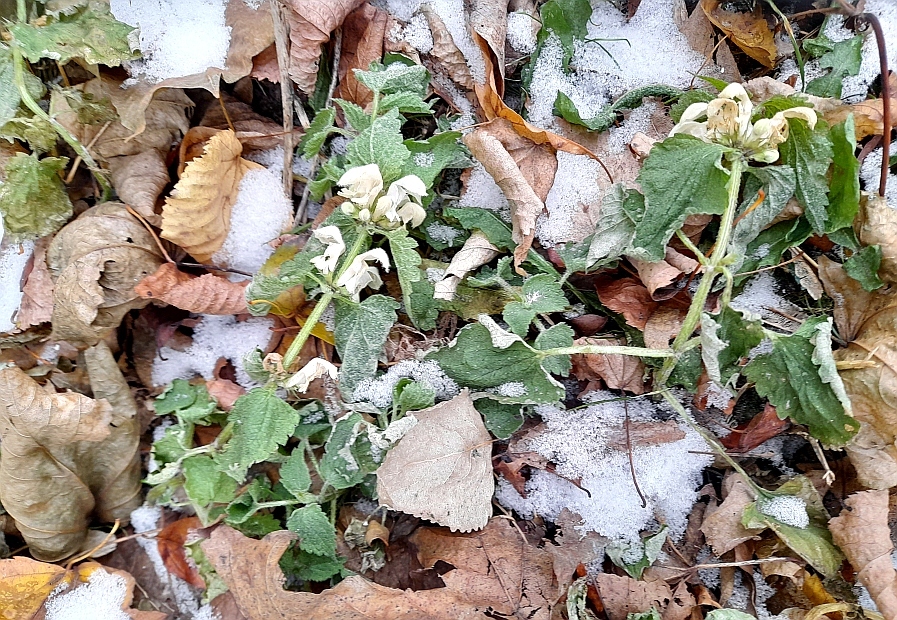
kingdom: Plantae
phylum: Tracheophyta
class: Magnoliopsida
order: Lamiales
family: Lamiaceae
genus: Lamium
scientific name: Lamium album
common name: White dead-nettle
